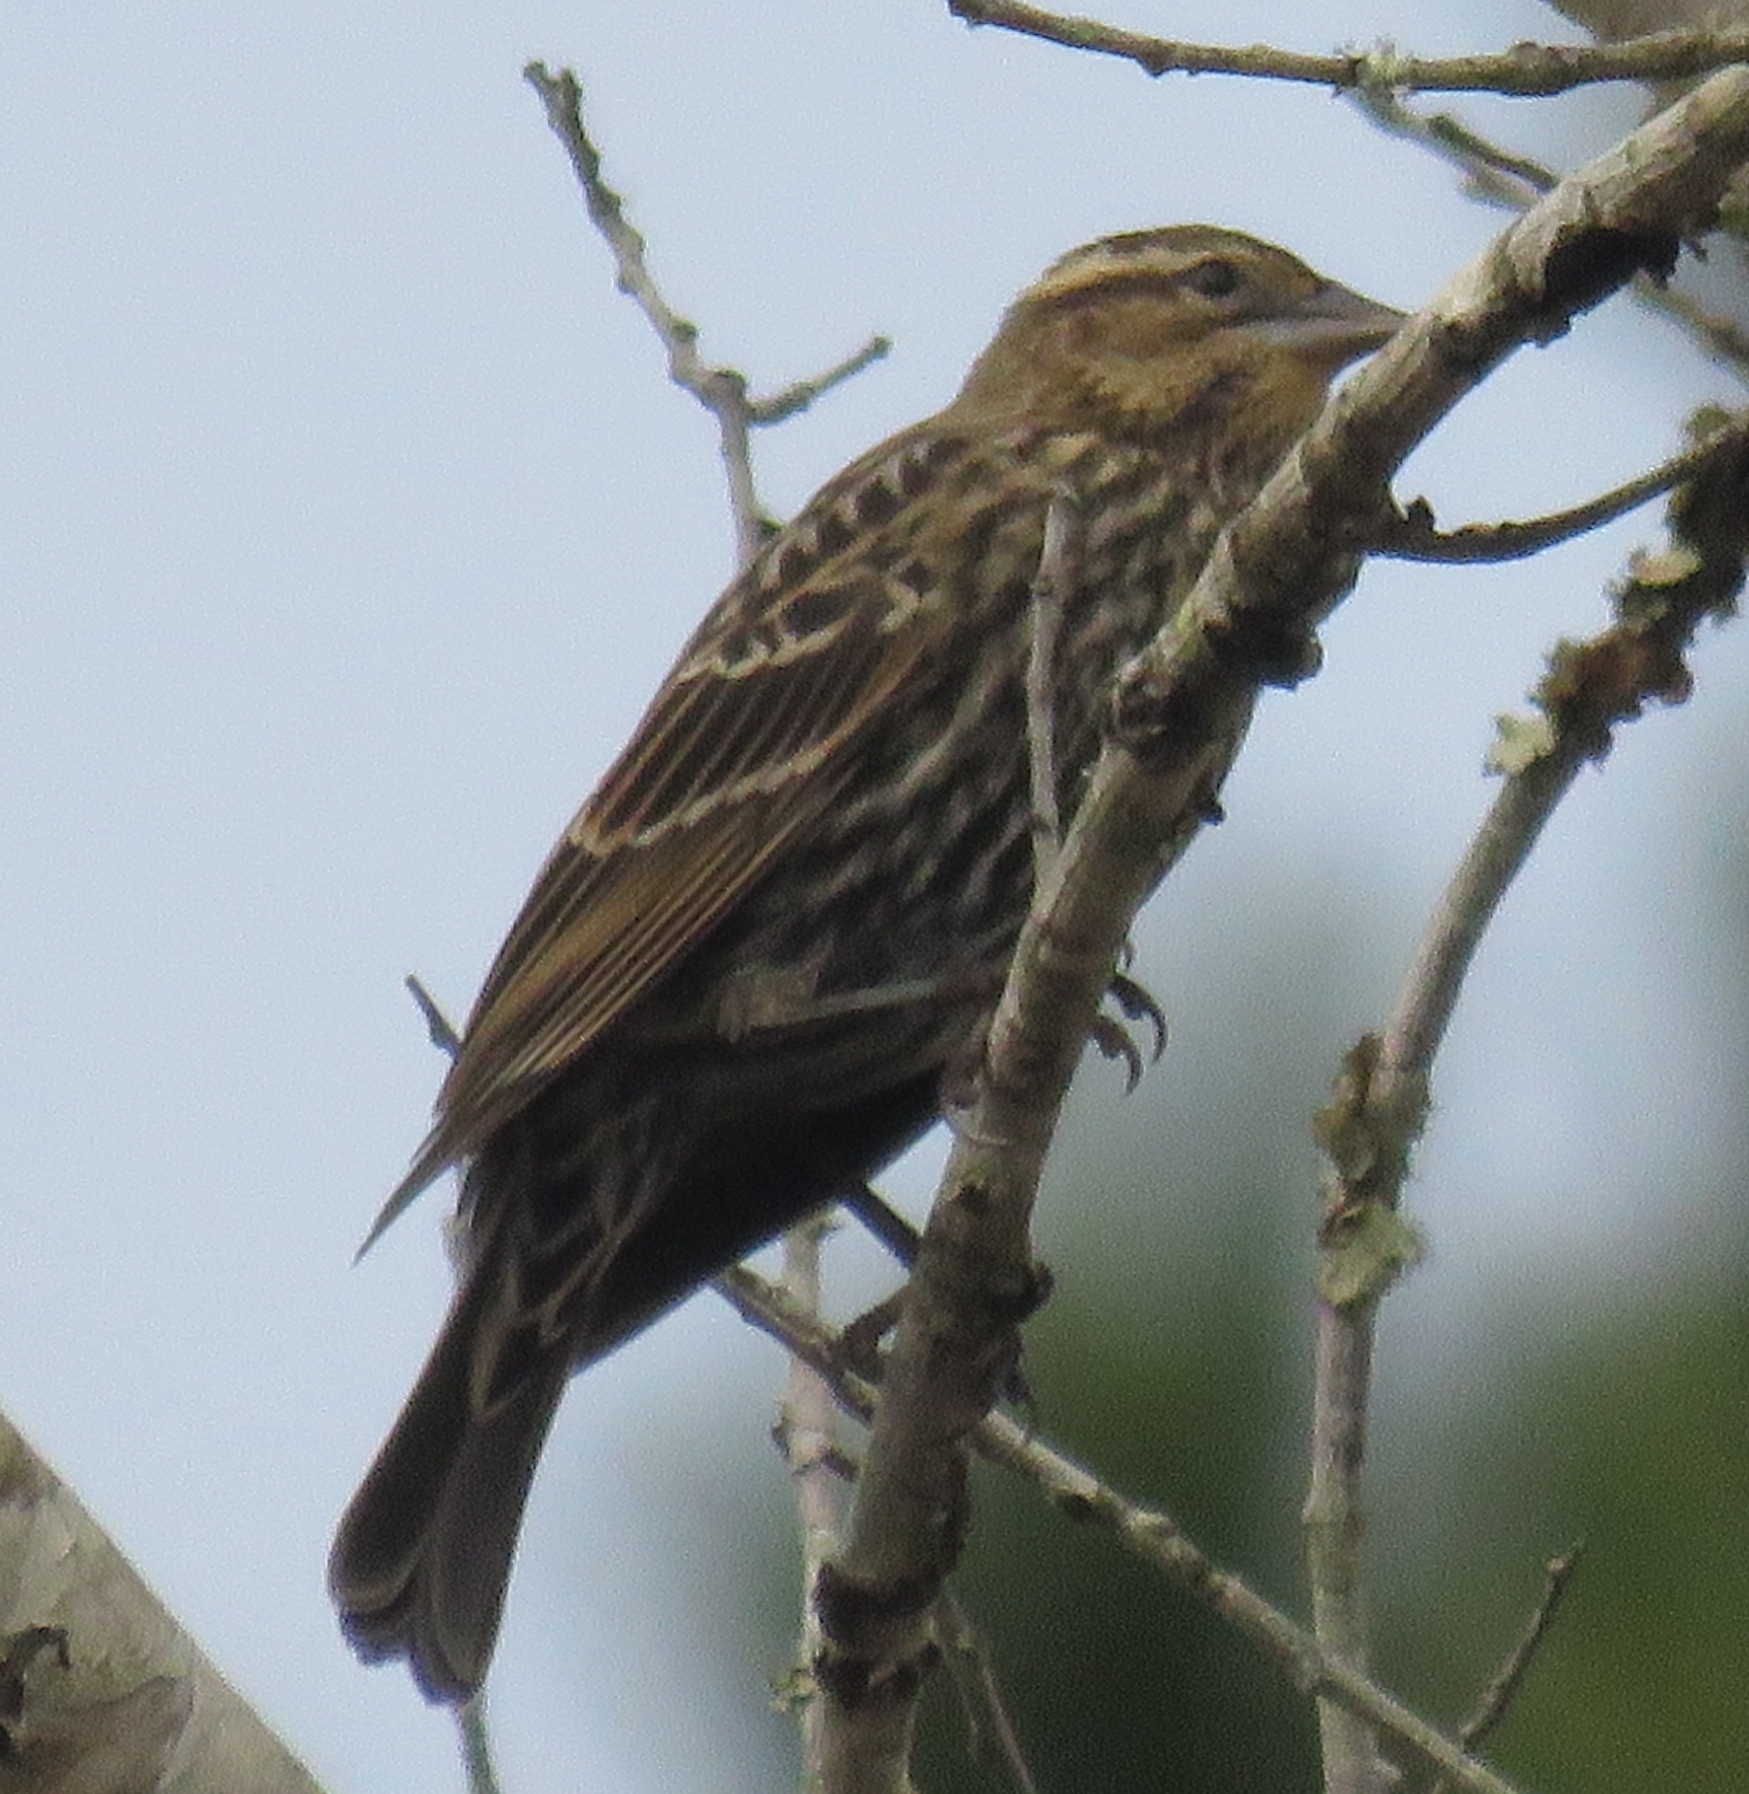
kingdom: Animalia
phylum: Chordata
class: Aves
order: Passeriformes
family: Icteridae
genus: Agelaius
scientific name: Agelaius phoeniceus
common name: Red-winged blackbird
